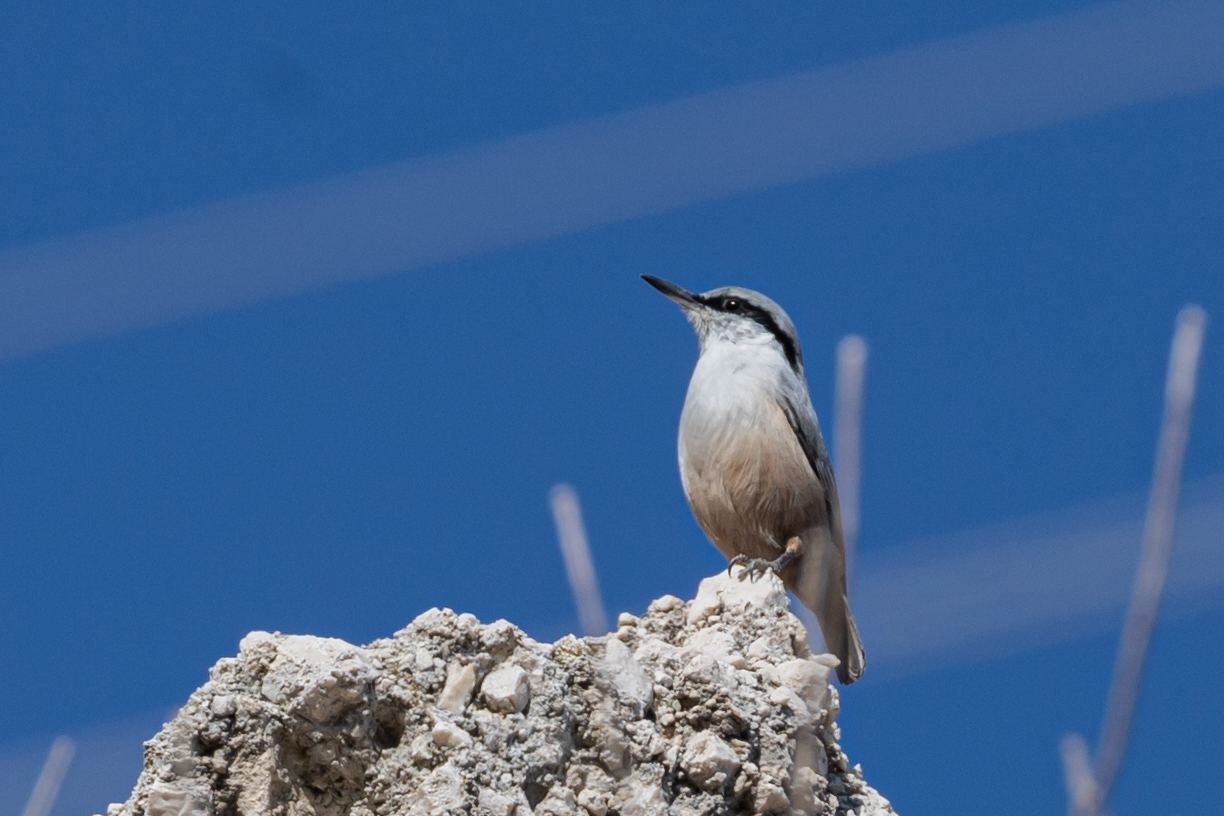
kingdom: Animalia
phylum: Chordata
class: Aves
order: Passeriformes
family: Sittidae
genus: Sitta
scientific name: Sitta neumayer
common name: Western rock nuthatch
